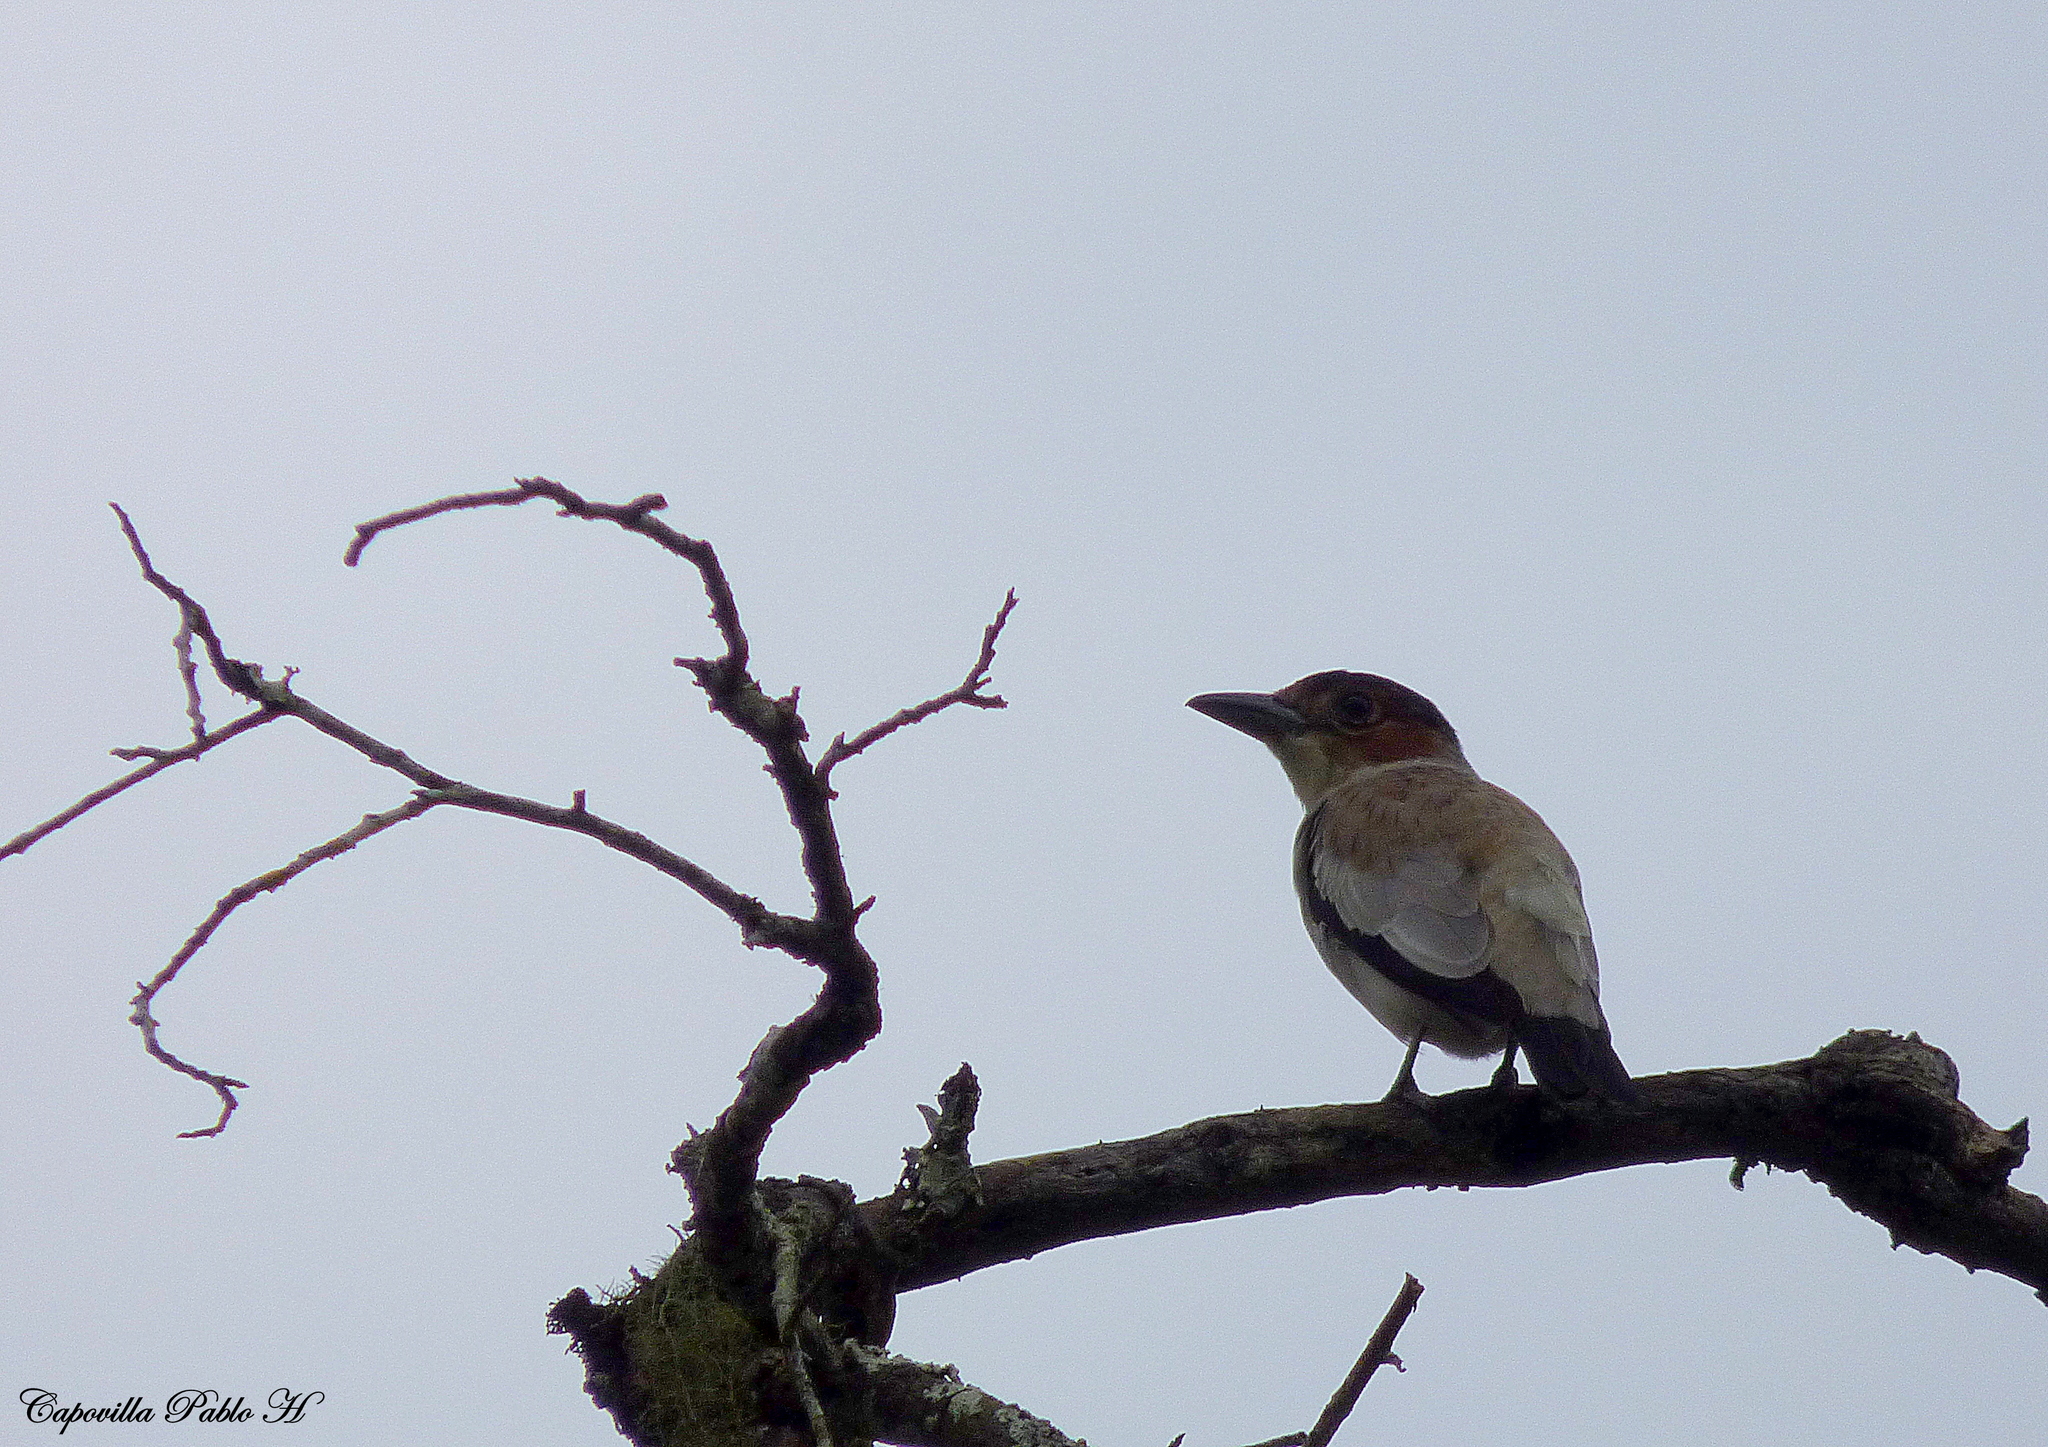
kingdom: Animalia
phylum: Chordata
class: Aves
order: Passeriformes
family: Cotingidae
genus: Tityra
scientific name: Tityra inquisitor
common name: Black-crowned tityra
